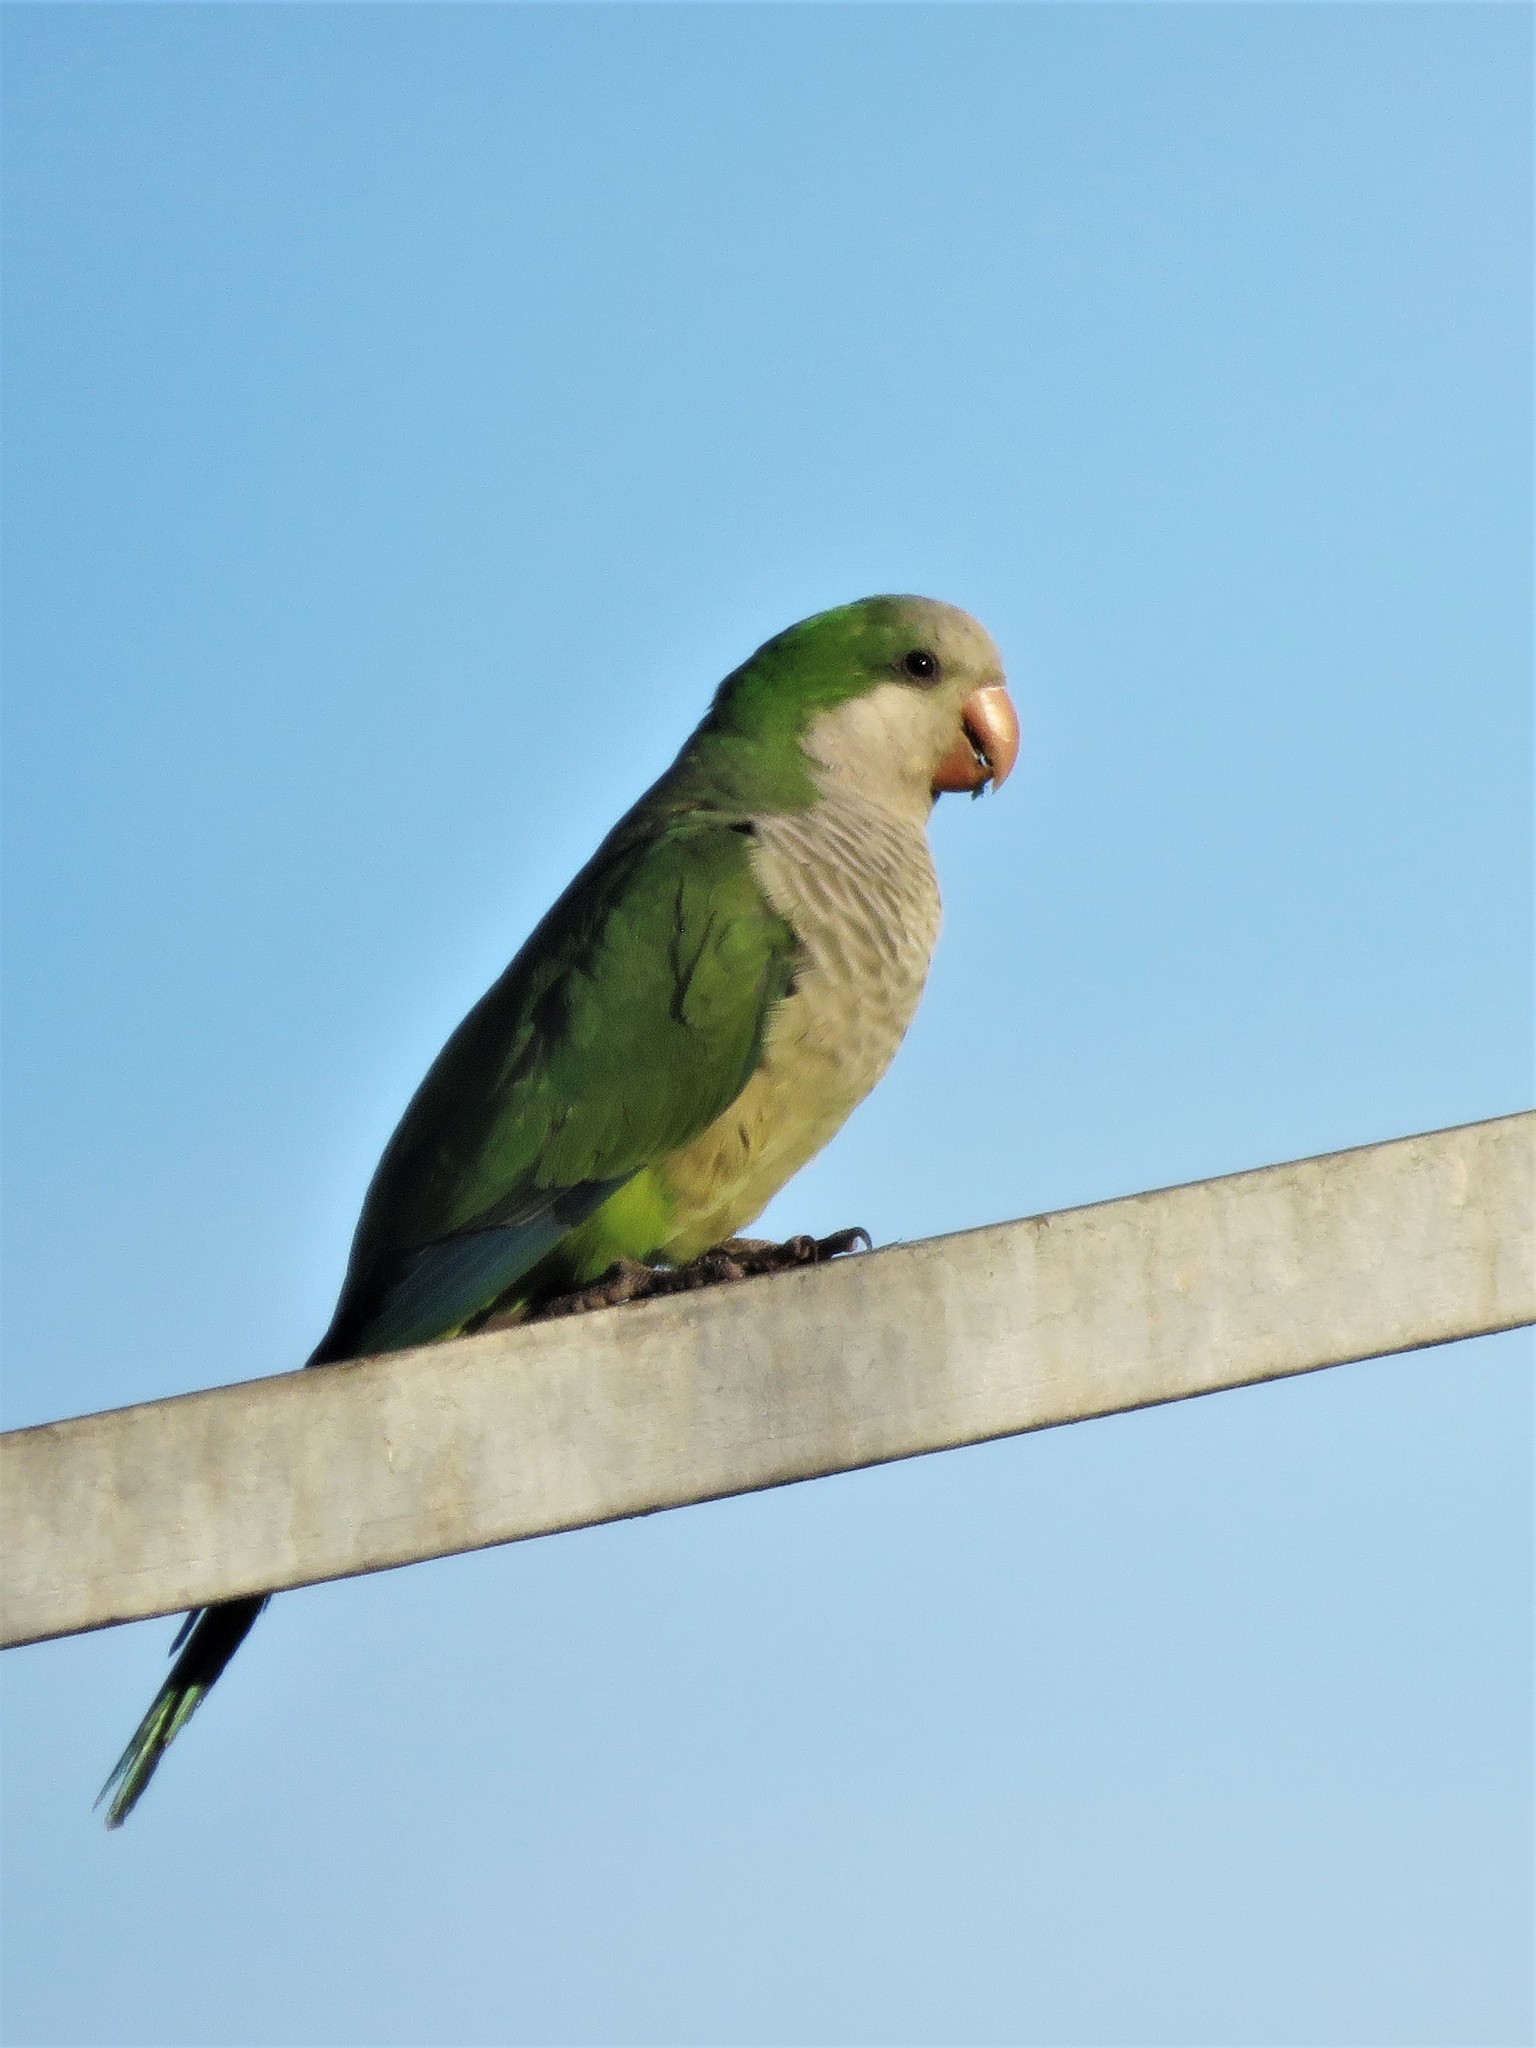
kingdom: Animalia
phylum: Chordata
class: Aves
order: Psittaciformes
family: Psittacidae
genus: Myiopsitta
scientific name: Myiopsitta monachus
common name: Monk parakeet
